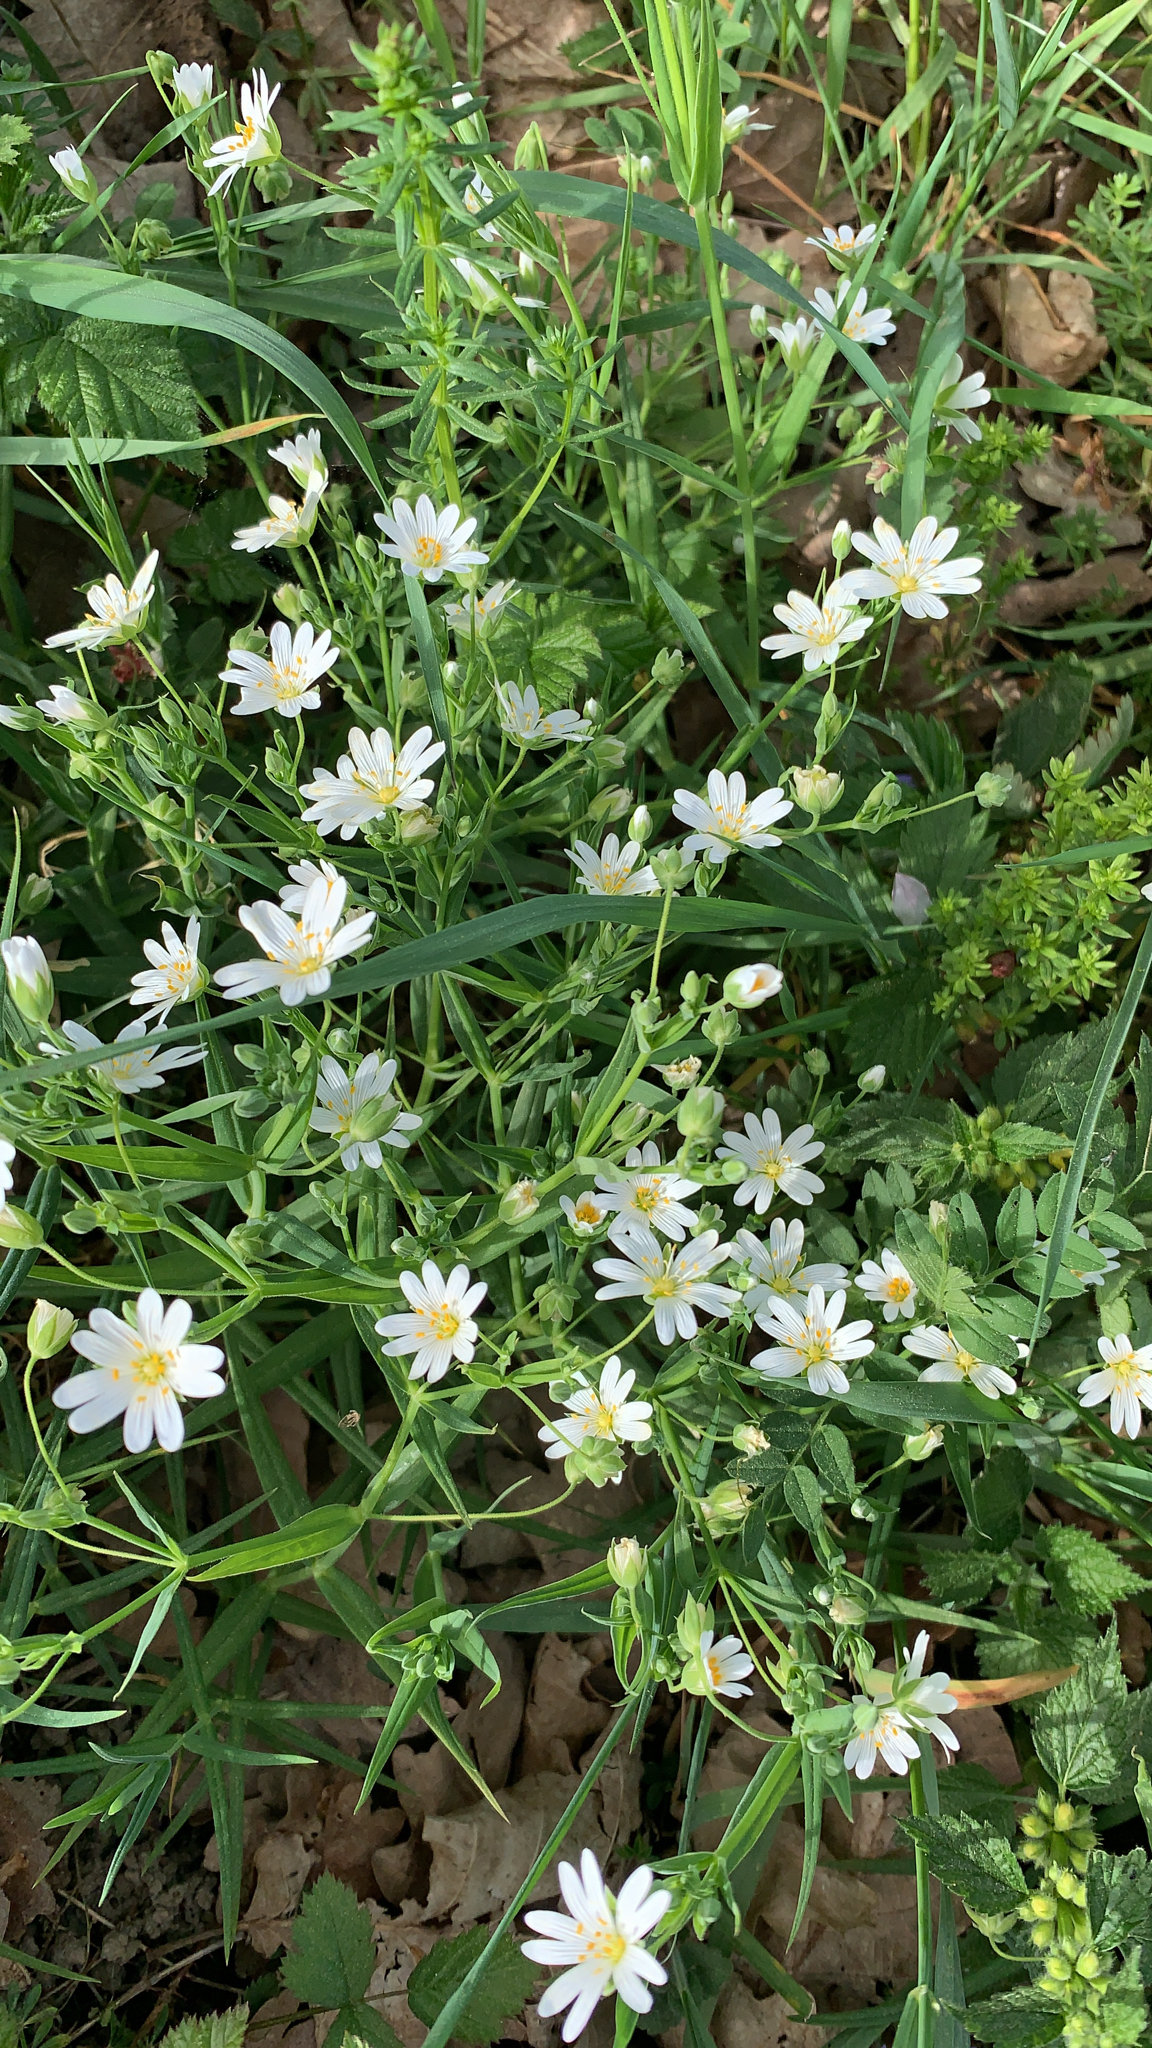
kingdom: Plantae
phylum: Tracheophyta
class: Magnoliopsida
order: Caryophyllales
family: Caryophyllaceae
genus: Rabelera
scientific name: Rabelera holostea
